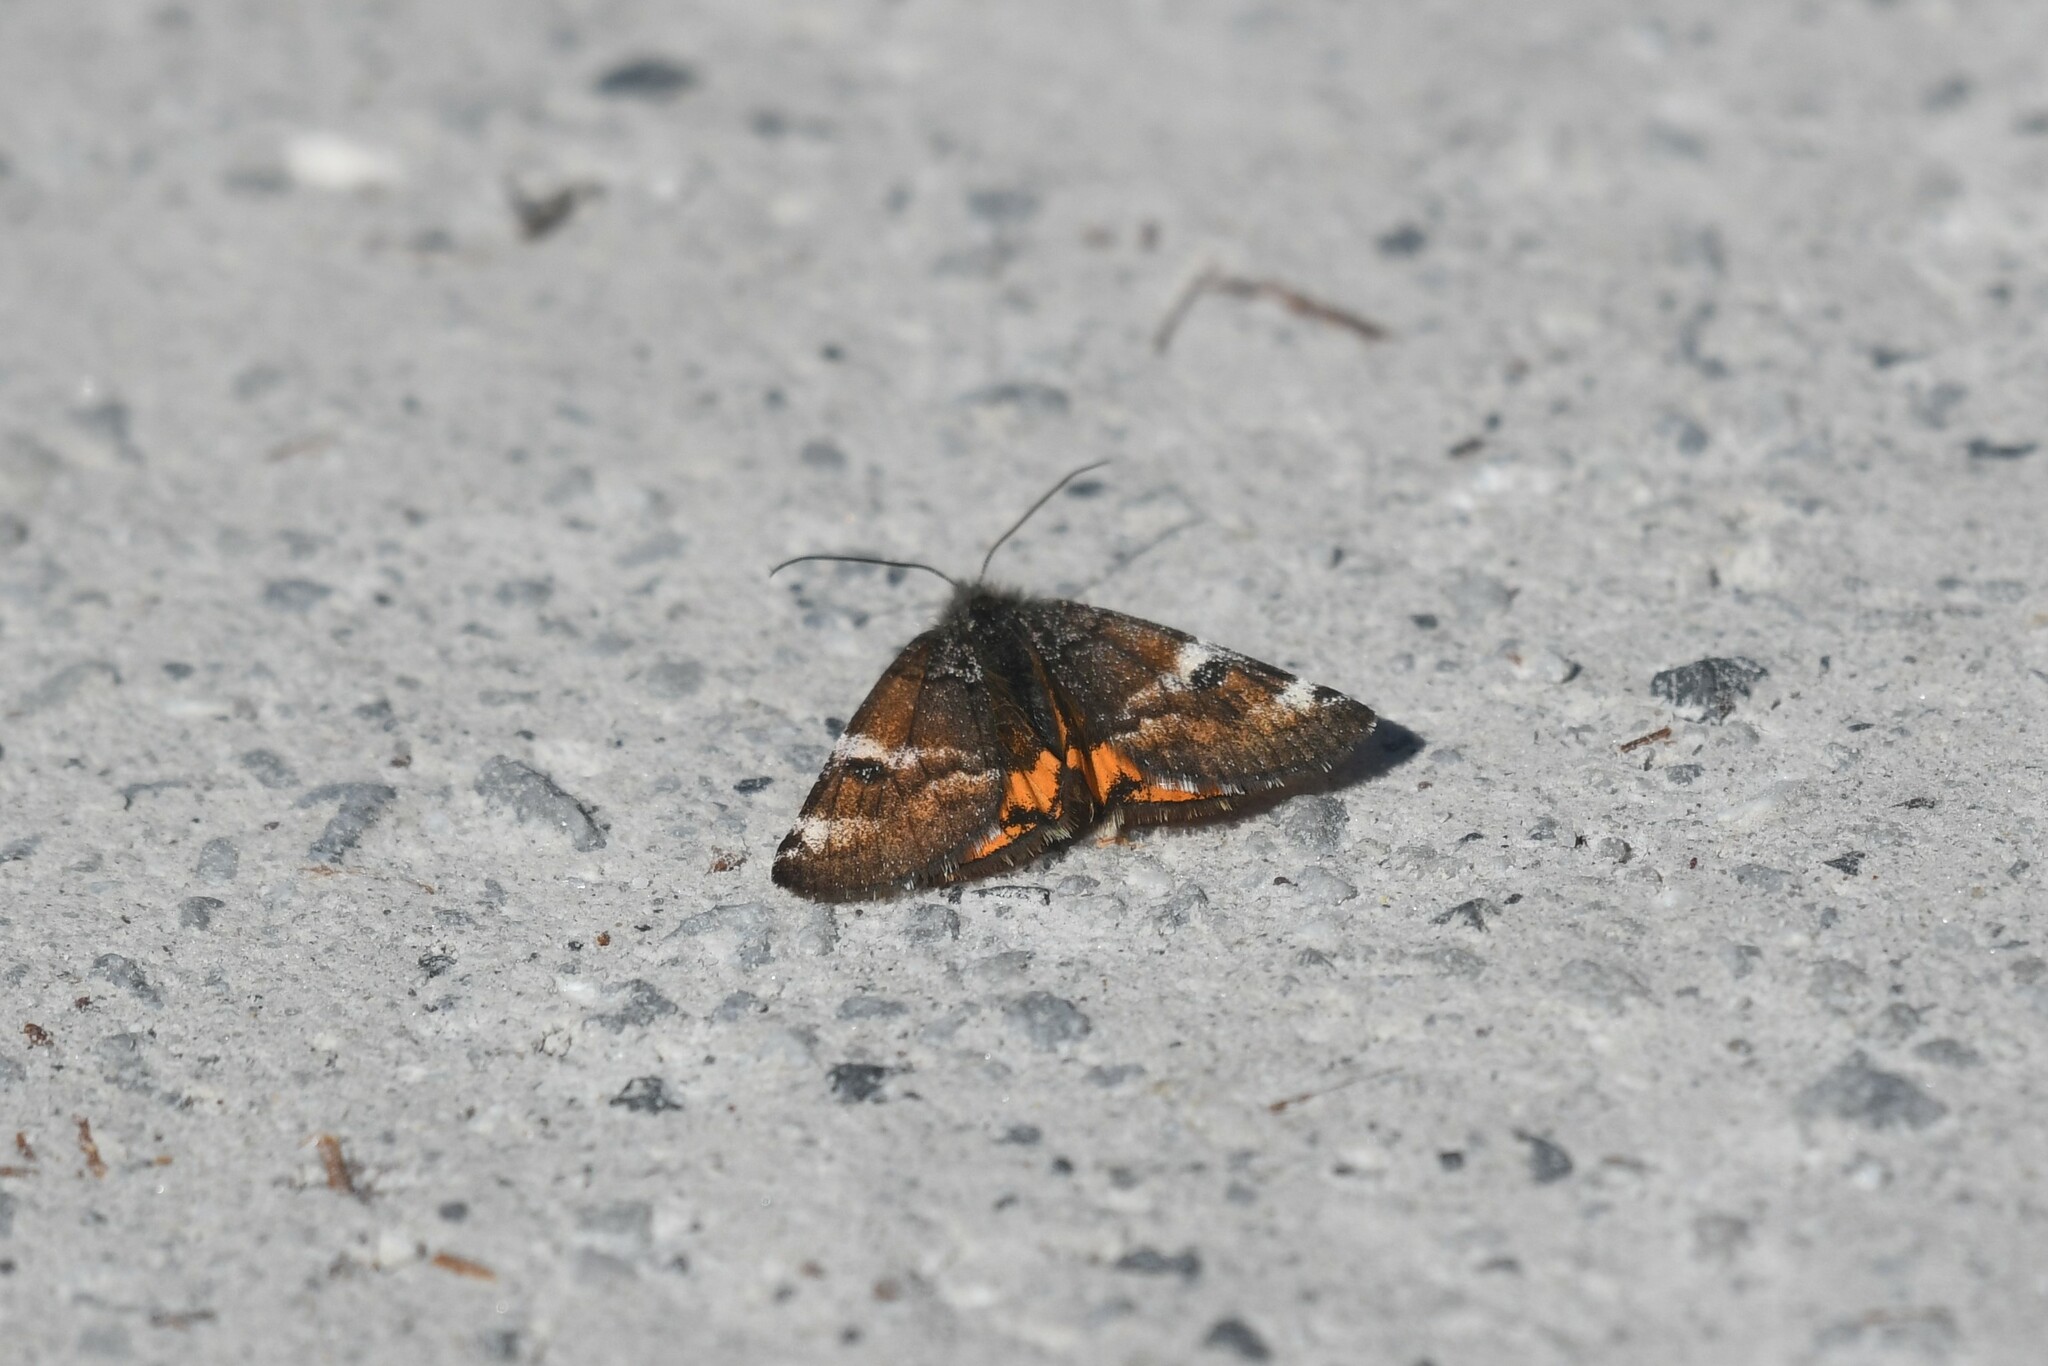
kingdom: Animalia
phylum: Arthropoda
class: Insecta
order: Lepidoptera
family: Geometridae
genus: Archiearis
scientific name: Archiearis infans
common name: First born geometer
